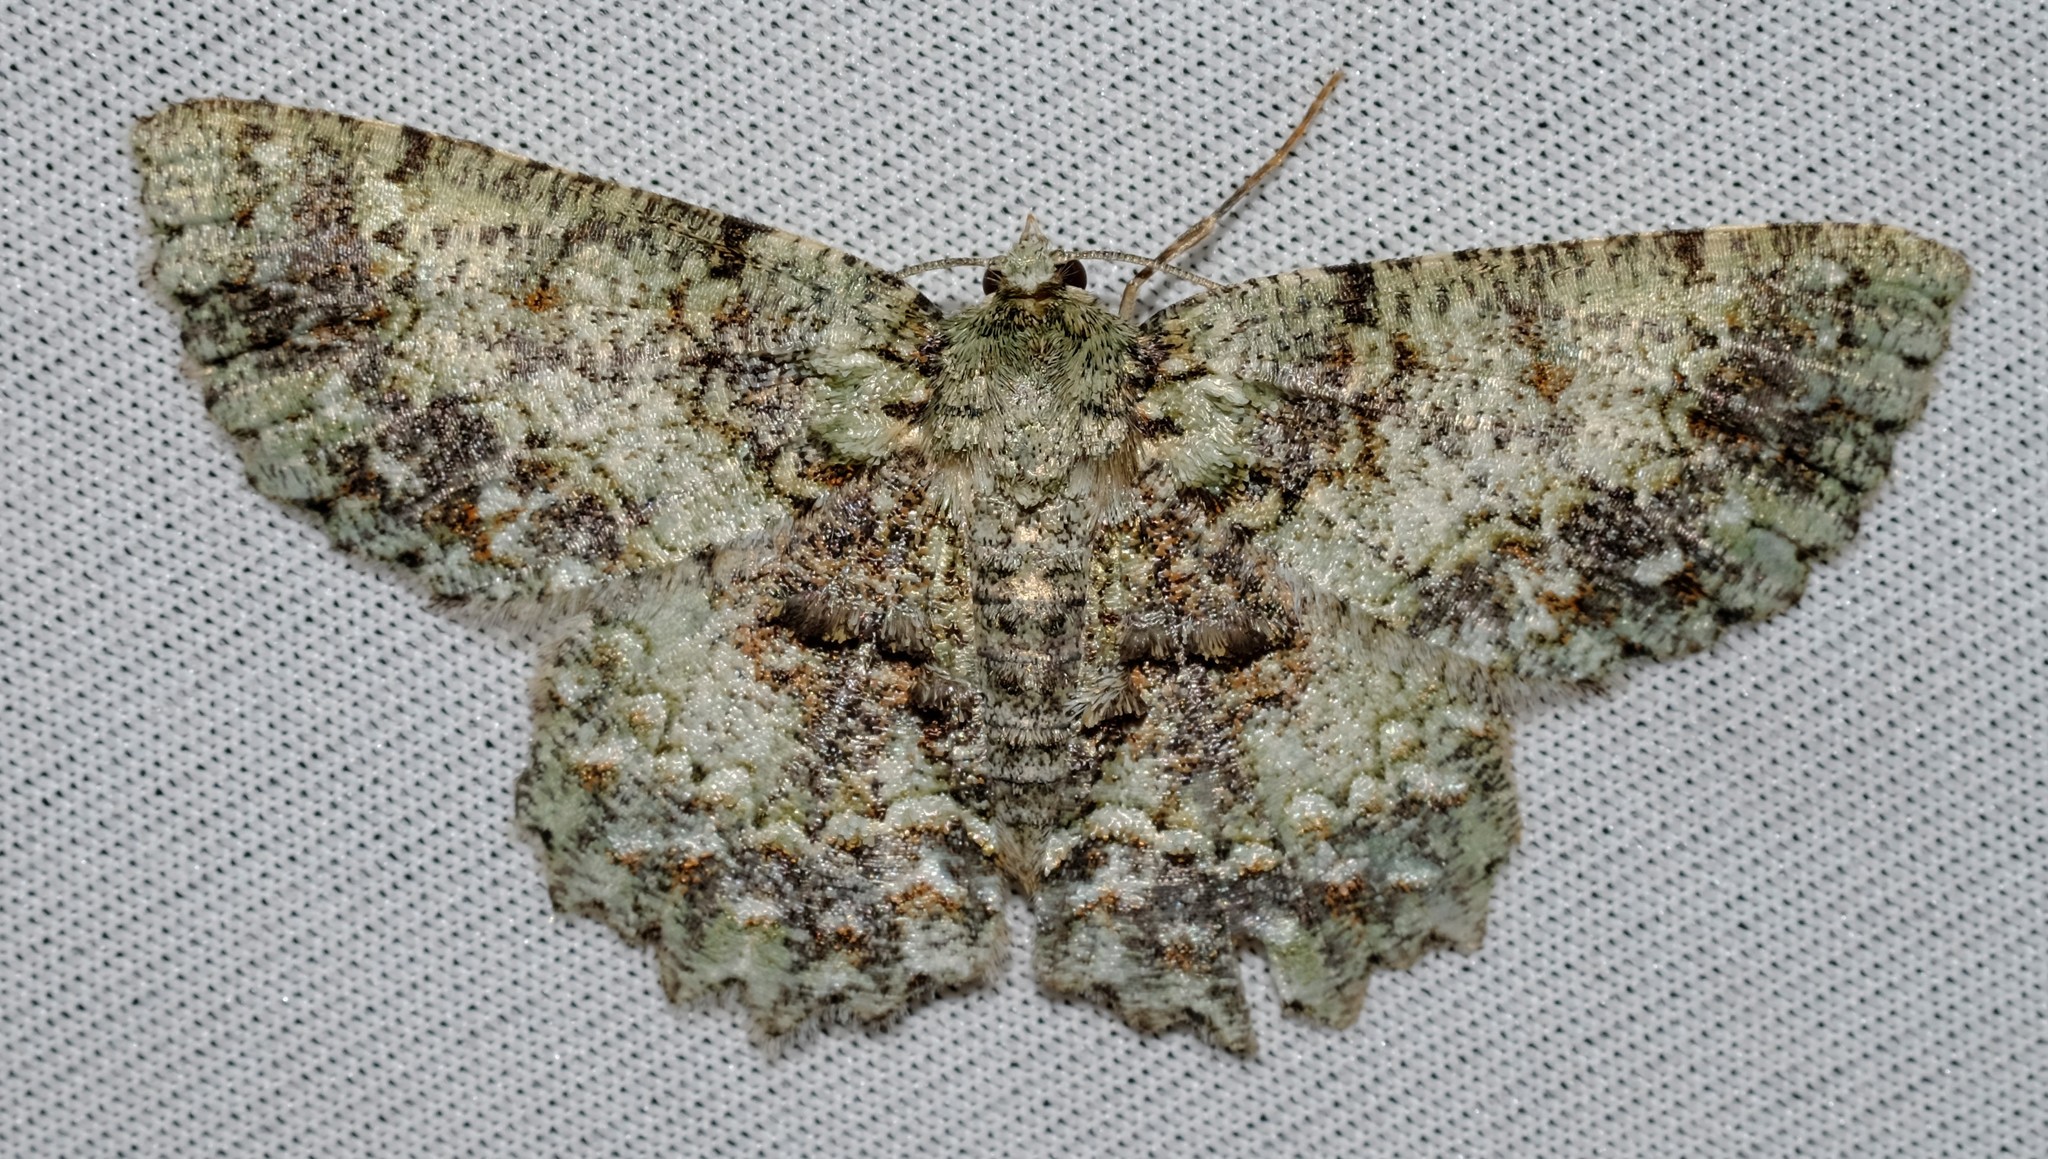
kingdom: Animalia
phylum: Arthropoda
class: Insecta
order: Lepidoptera
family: Geometridae
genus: Hypodoxa
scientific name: Hypodoxa muscosaria
